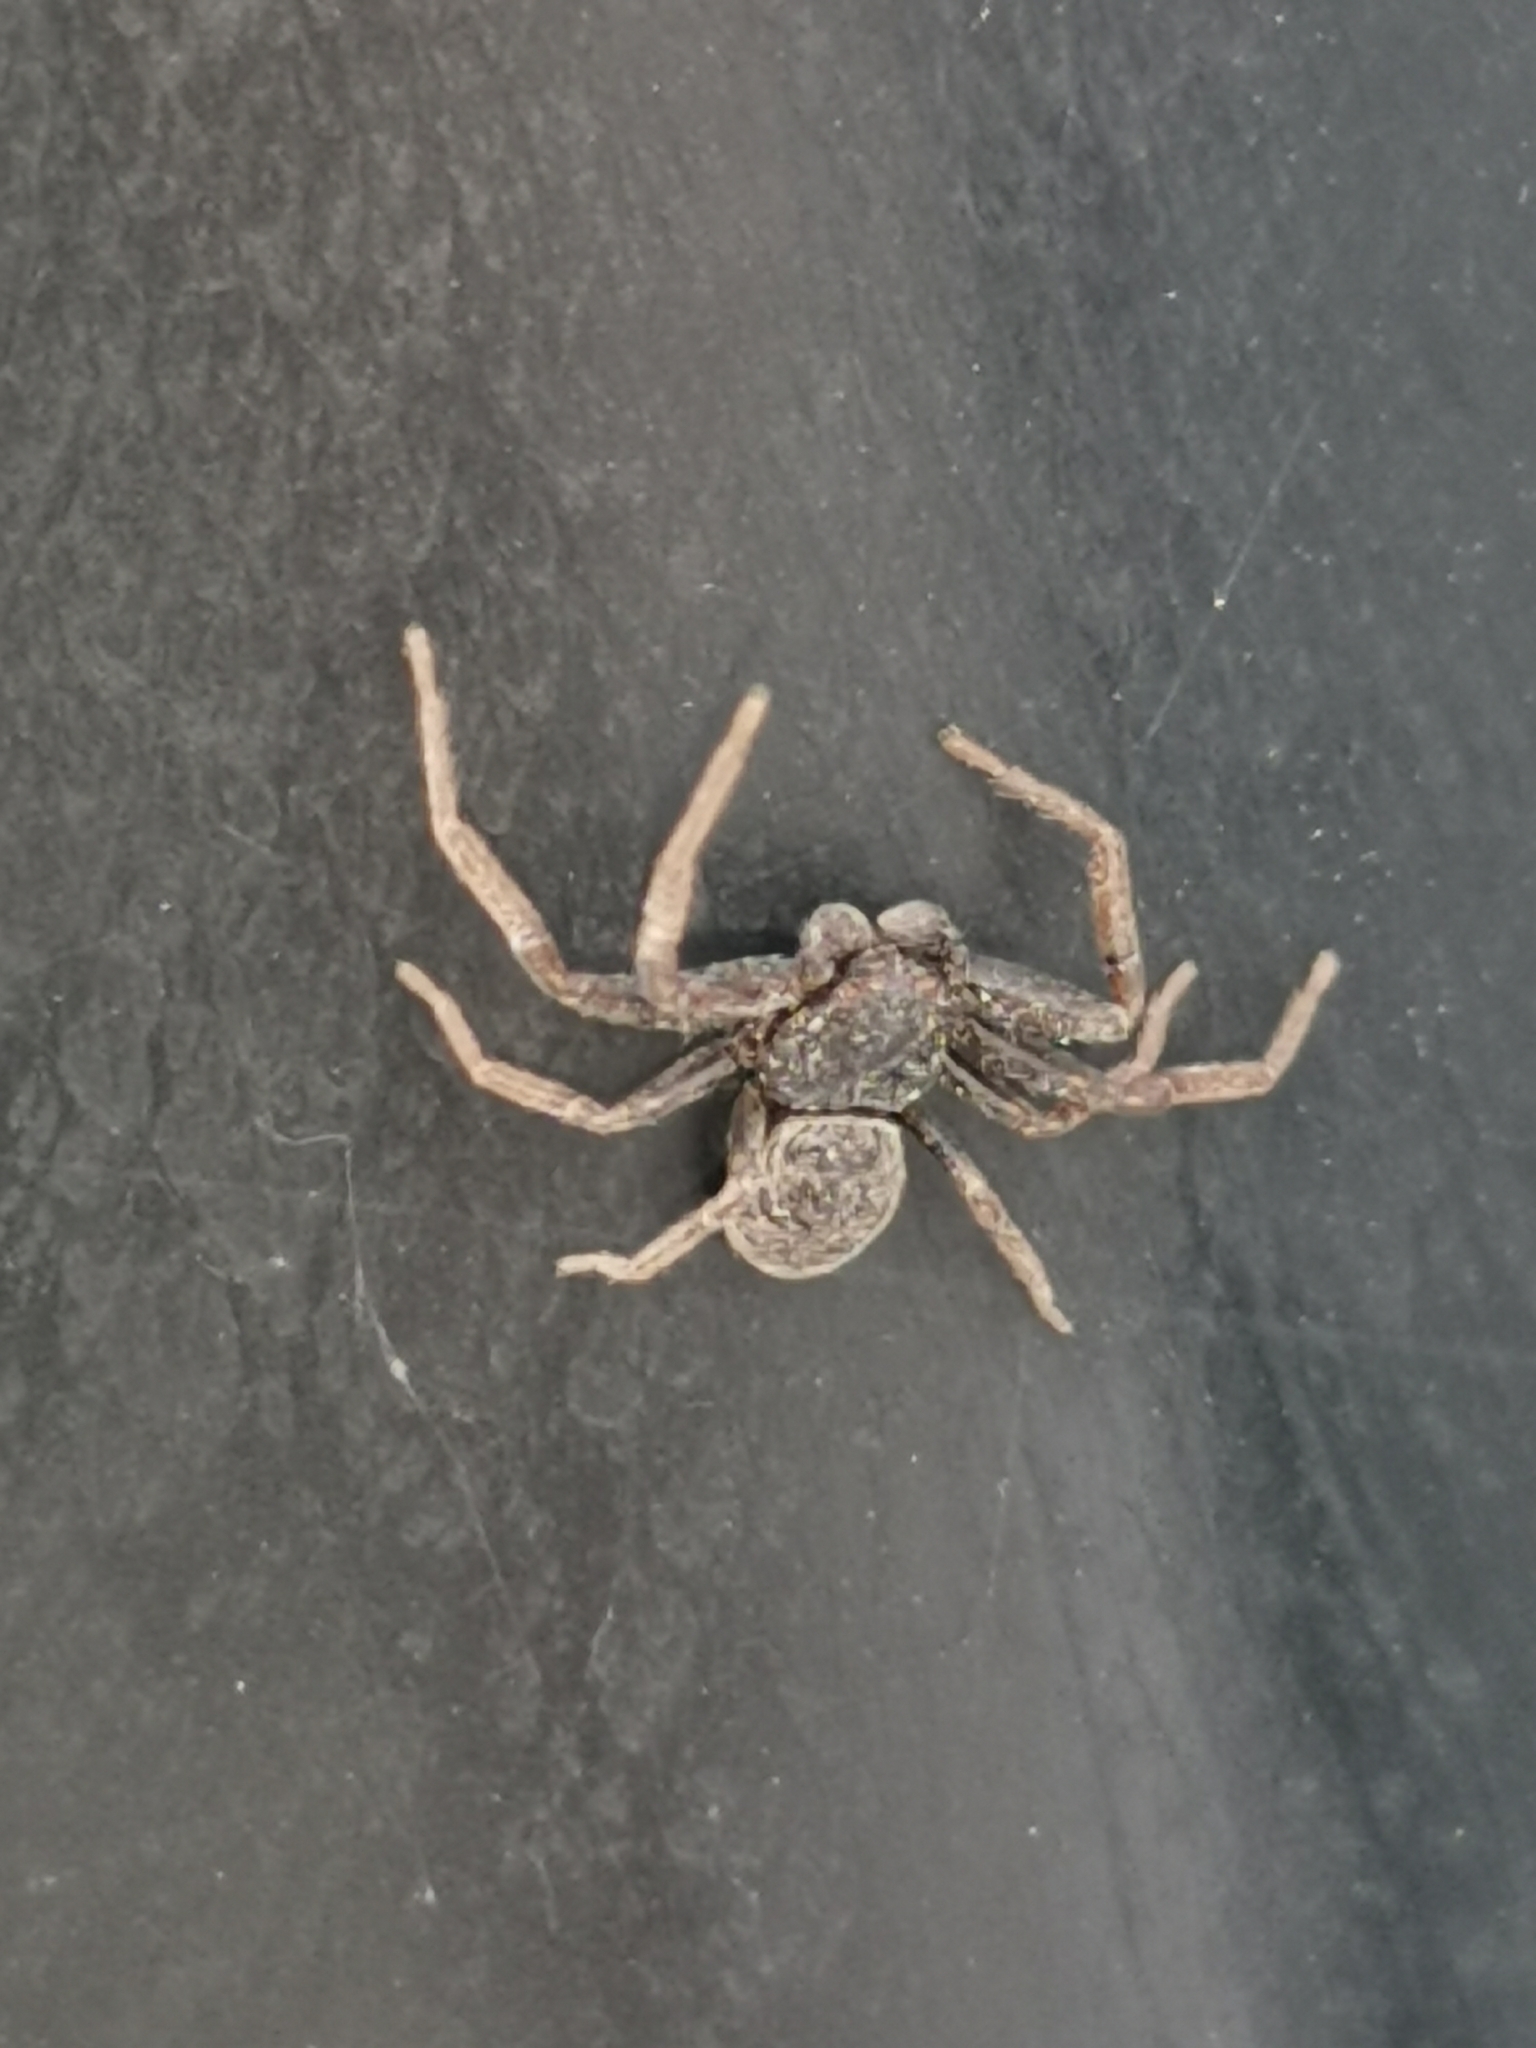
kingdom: Animalia
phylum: Arthropoda
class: Arachnida
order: Araneae
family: Thomisidae
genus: Coriarachne
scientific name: Coriarachne depressa
